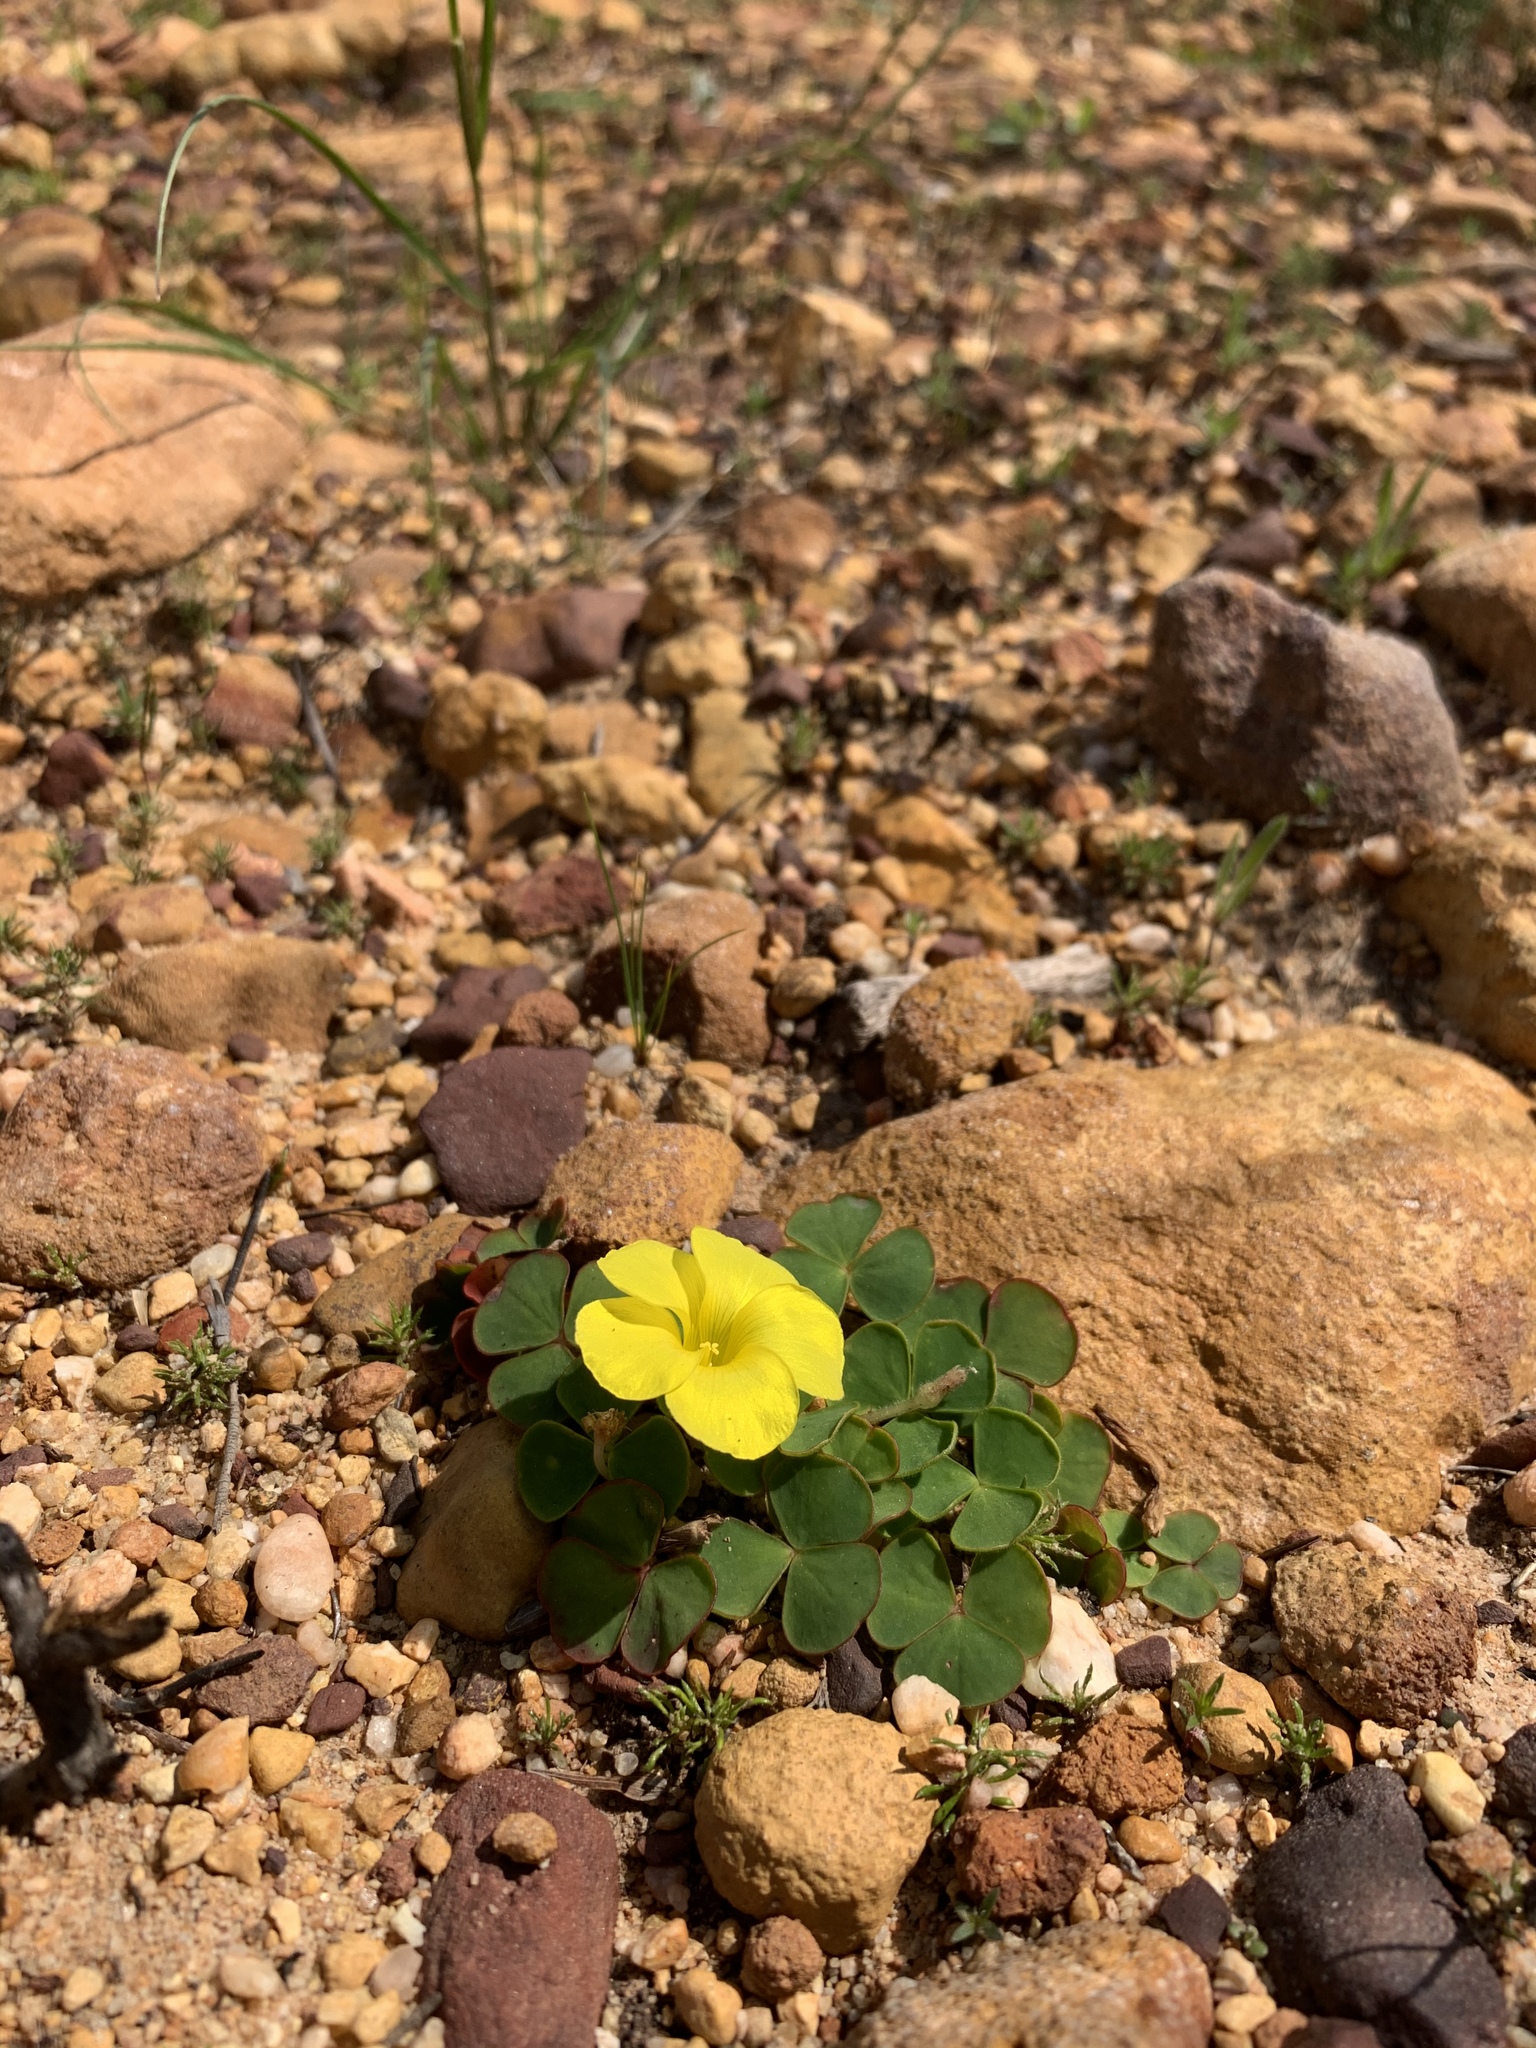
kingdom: Plantae
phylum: Tracheophyta
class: Magnoliopsida
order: Oxalidales
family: Oxalidaceae
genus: Oxalis
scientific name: Oxalis luteola
